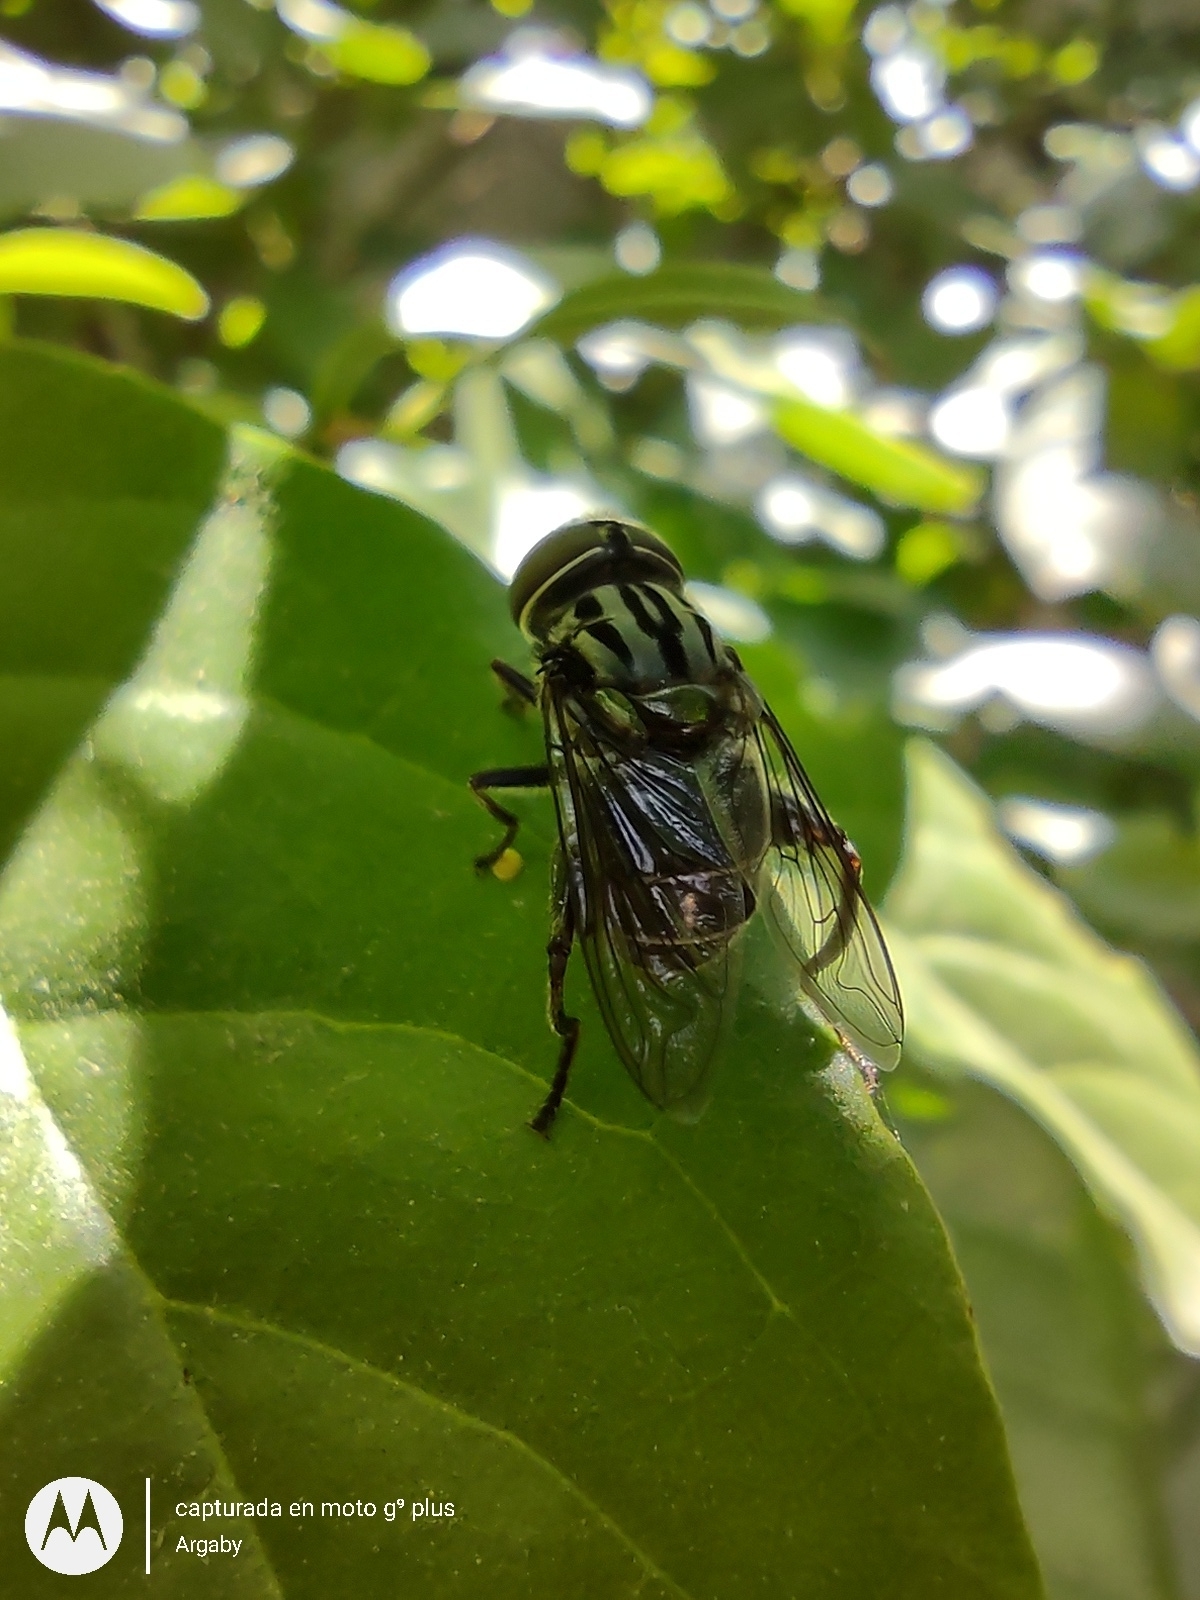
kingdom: Animalia
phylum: Arthropoda
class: Insecta
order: Diptera
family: Syrphidae
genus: Palpada
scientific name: Palpada furcata
